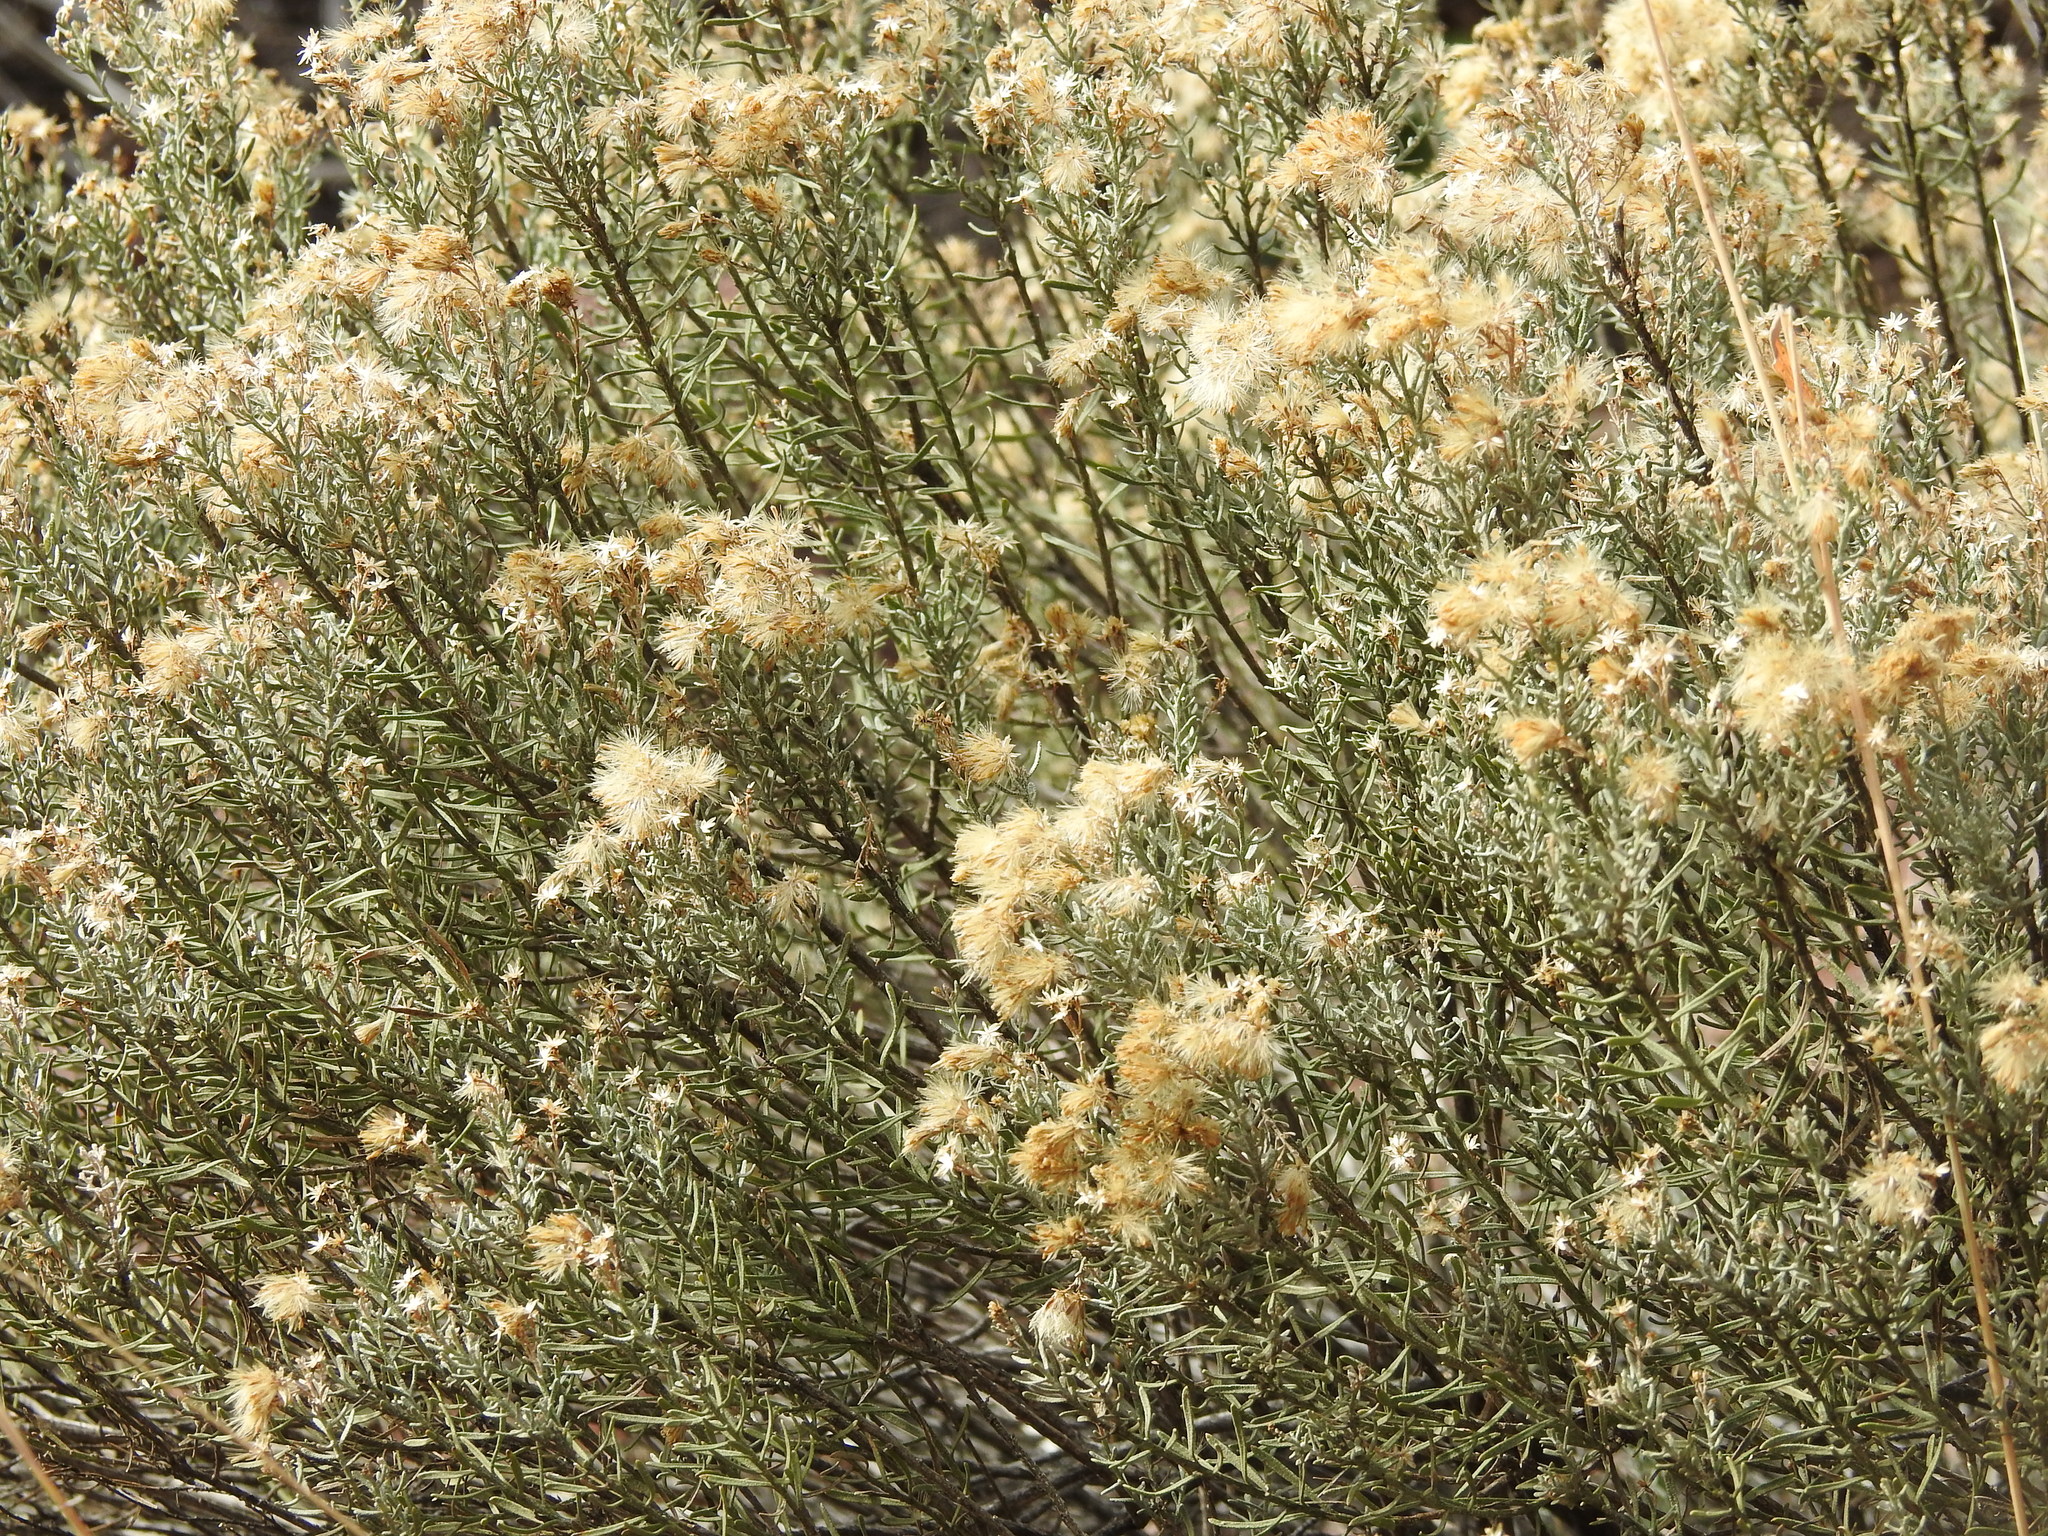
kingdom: Plantae
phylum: Tracheophyta
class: Magnoliopsida
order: Asterales
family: Asteraceae
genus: Ericameria
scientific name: Ericameria laricifolia
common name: Turpentine-bush
